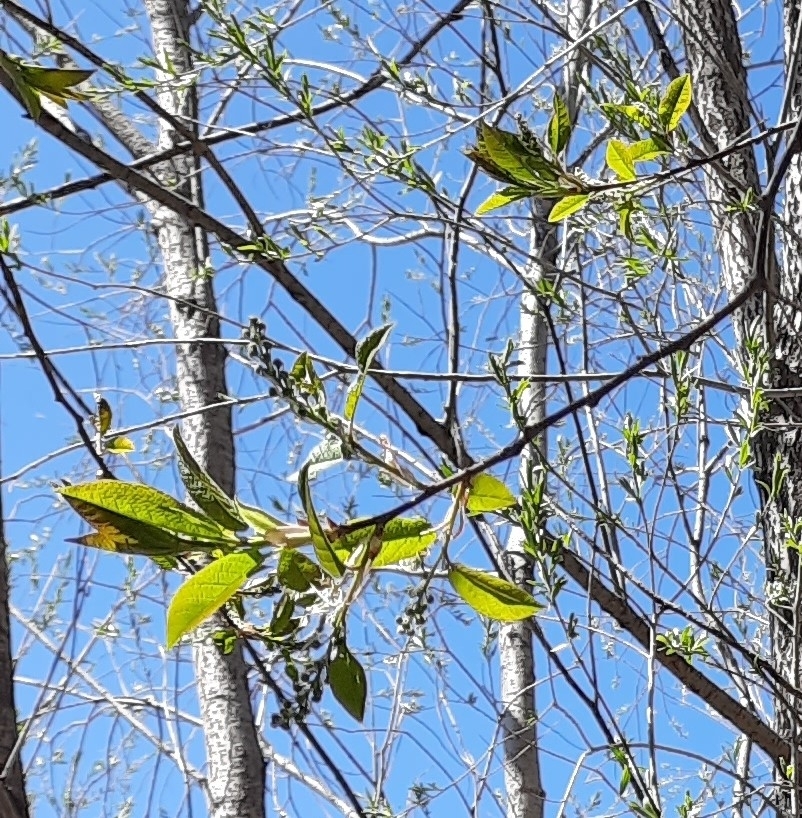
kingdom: Plantae
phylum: Tracheophyta
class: Magnoliopsida
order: Rosales
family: Rosaceae
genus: Prunus
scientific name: Prunus padus
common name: Bird cherry
